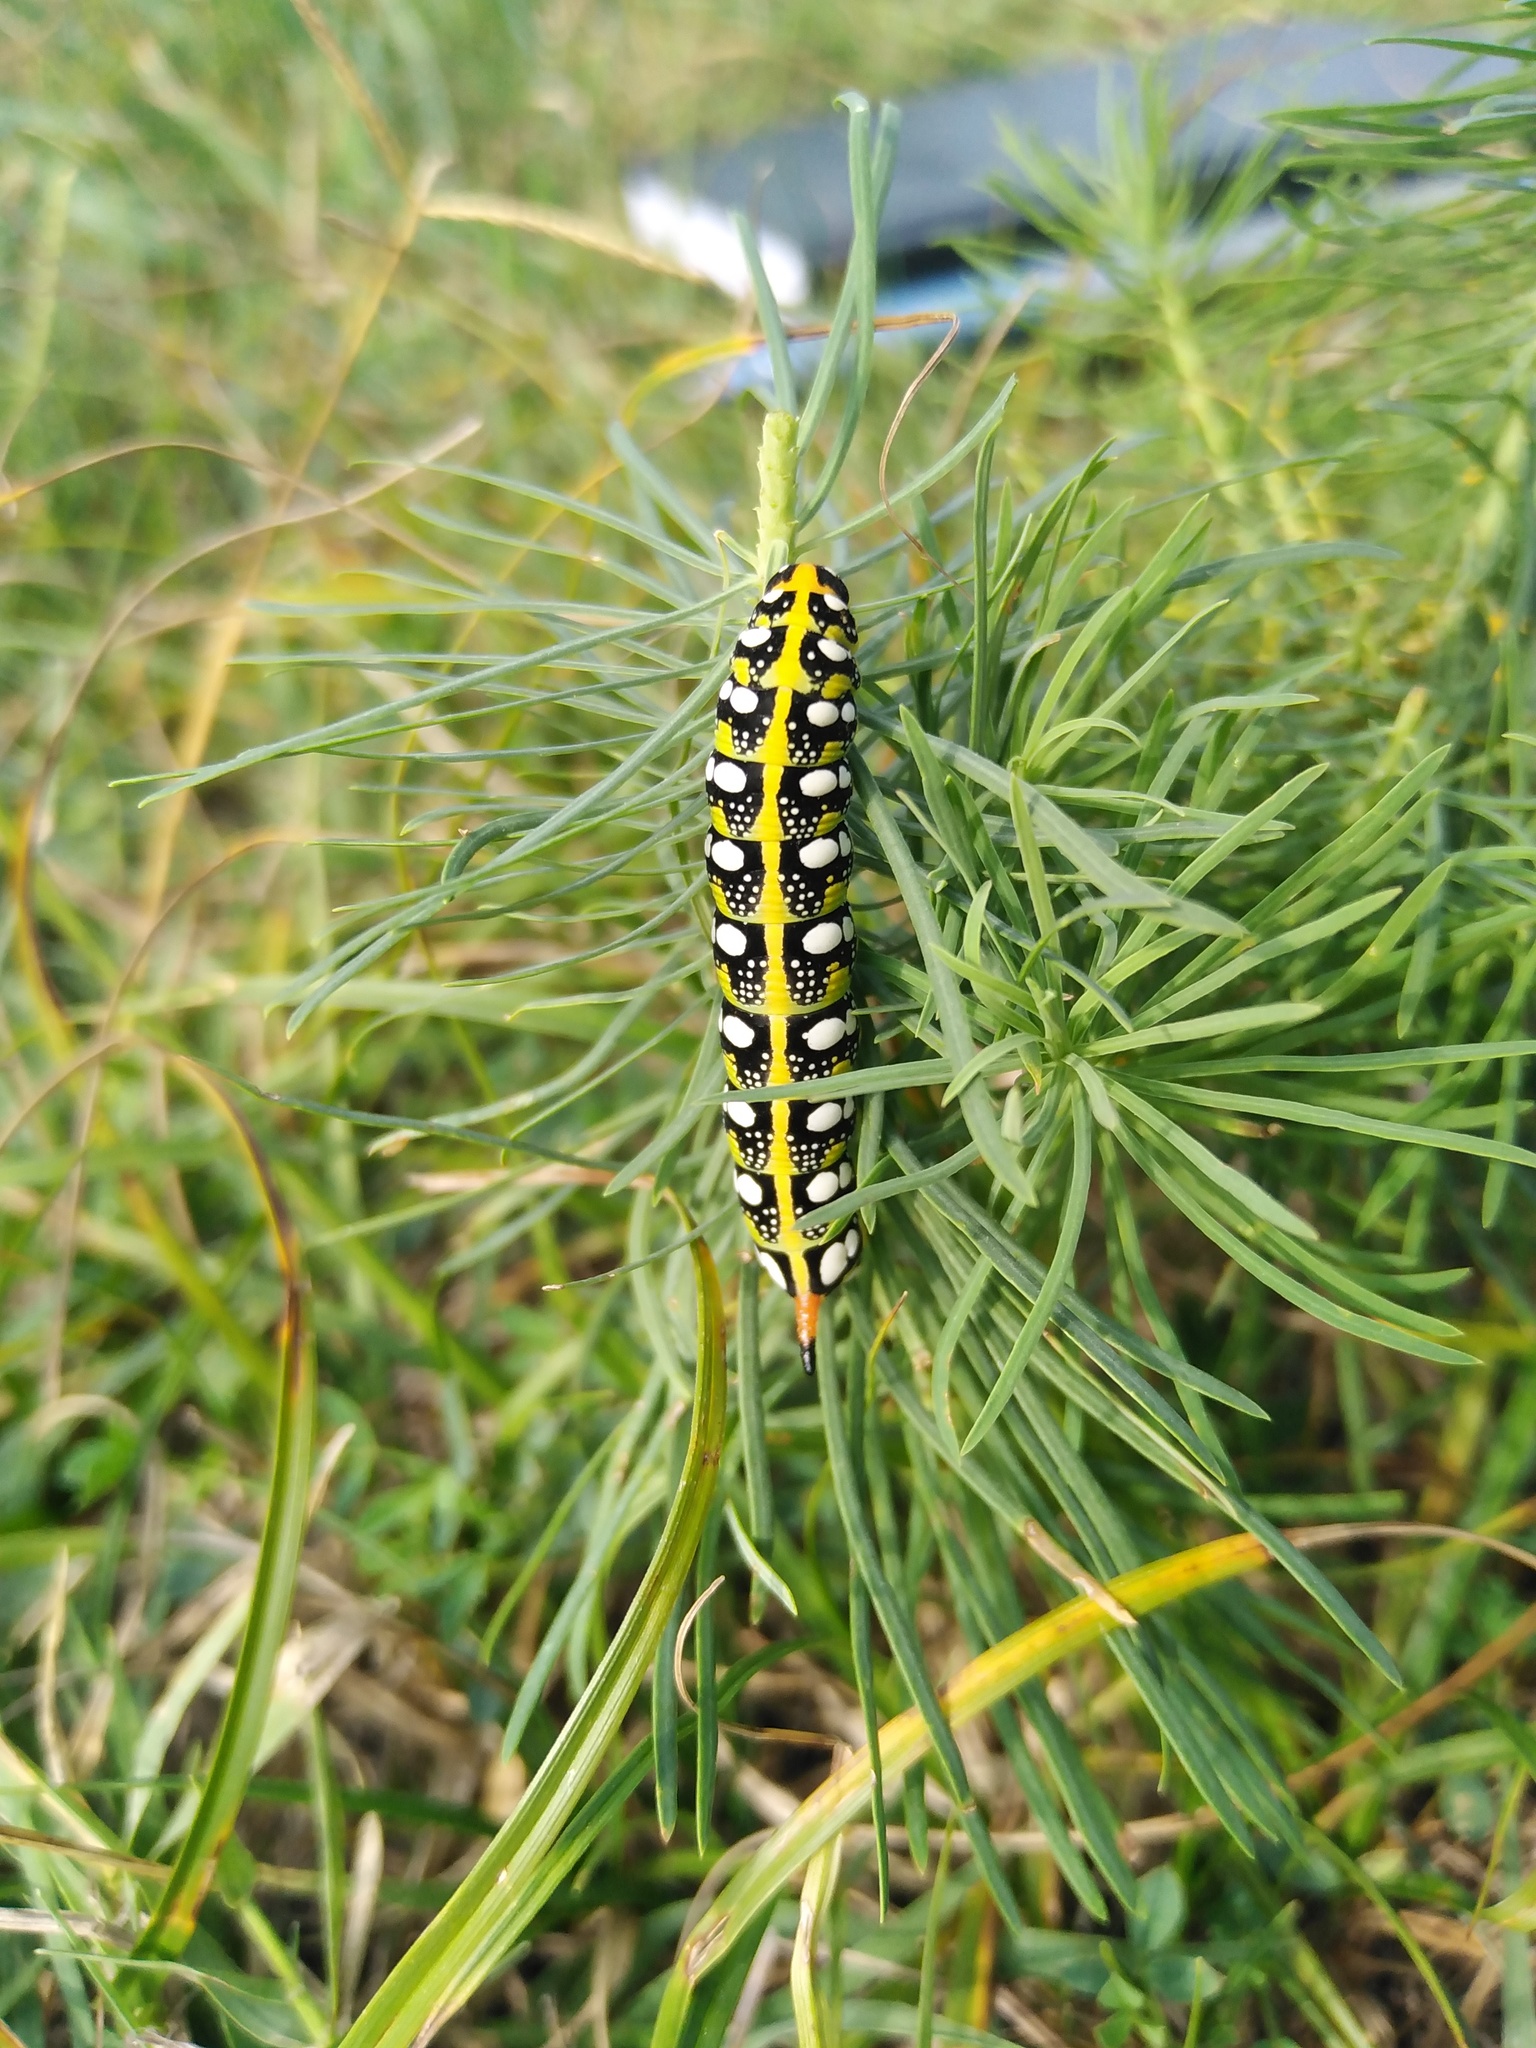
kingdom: Animalia
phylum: Arthropoda
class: Insecta
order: Lepidoptera
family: Sphingidae
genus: Hyles
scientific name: Hyles euphorbiae
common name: Spurge hawk-moth
